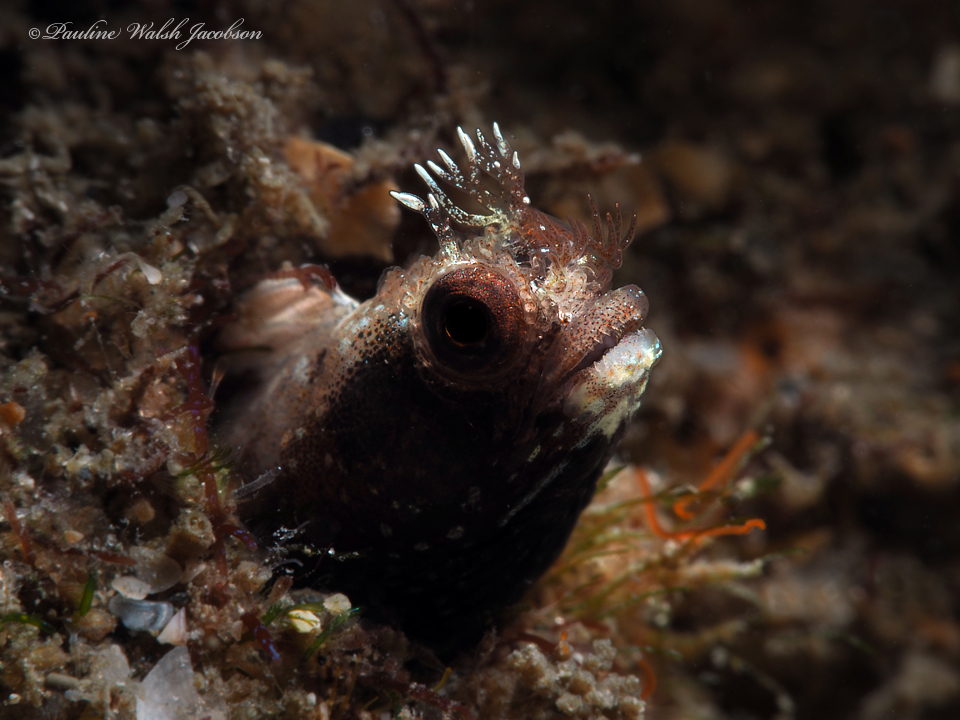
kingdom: Animalia
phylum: Chordata
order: Perciformes
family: Chaenopsidae
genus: Acanthemblemaria
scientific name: Acanthemblemaria aspera
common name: Roughhead blenny
